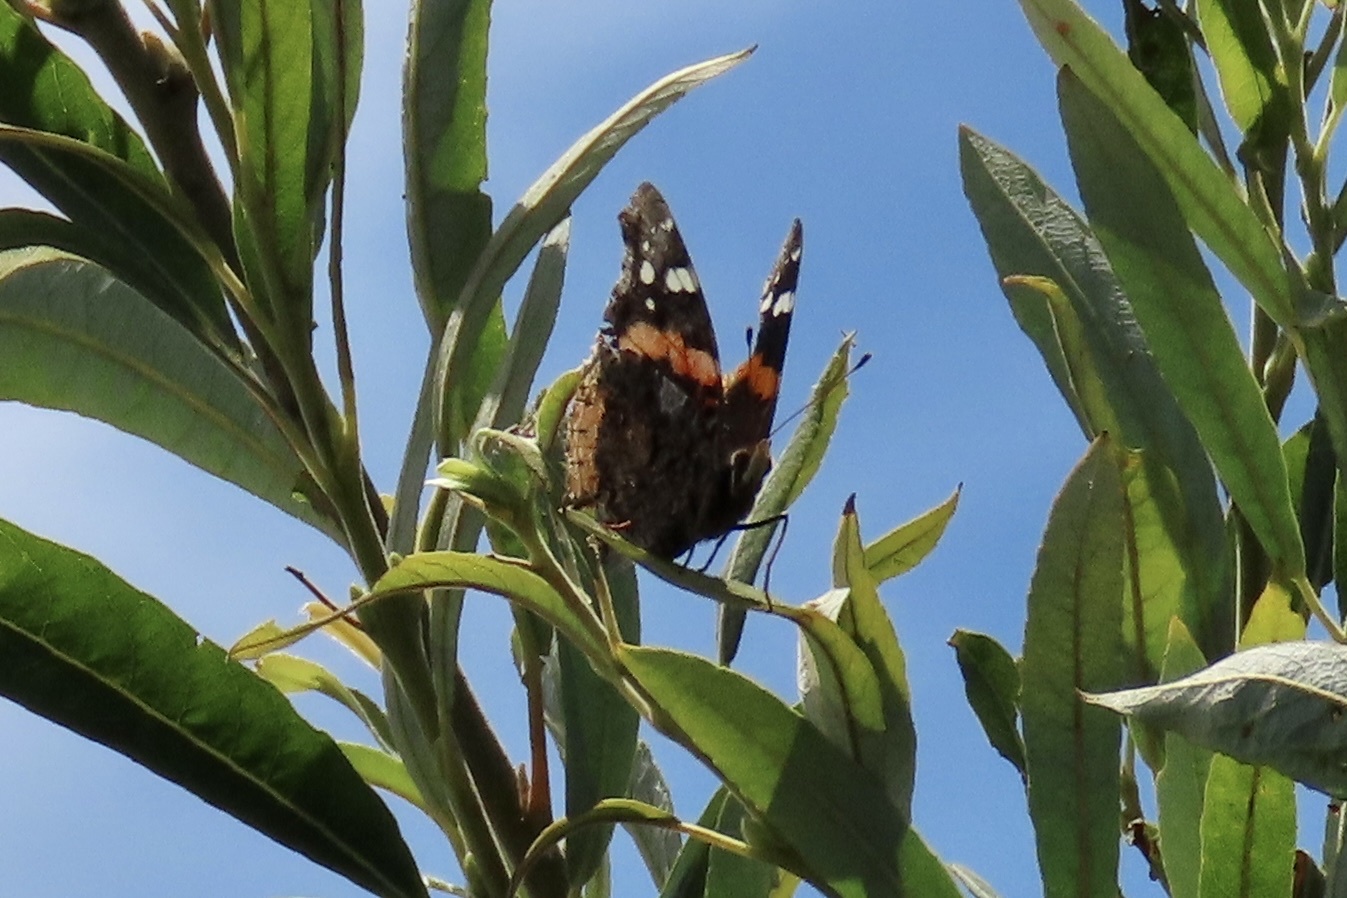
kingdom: Animalia
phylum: Arthropoda
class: Insecta
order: Lepidoptera
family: Nymphalidae
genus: Vanessa
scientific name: Vanessa atalanta
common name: Red admiral
